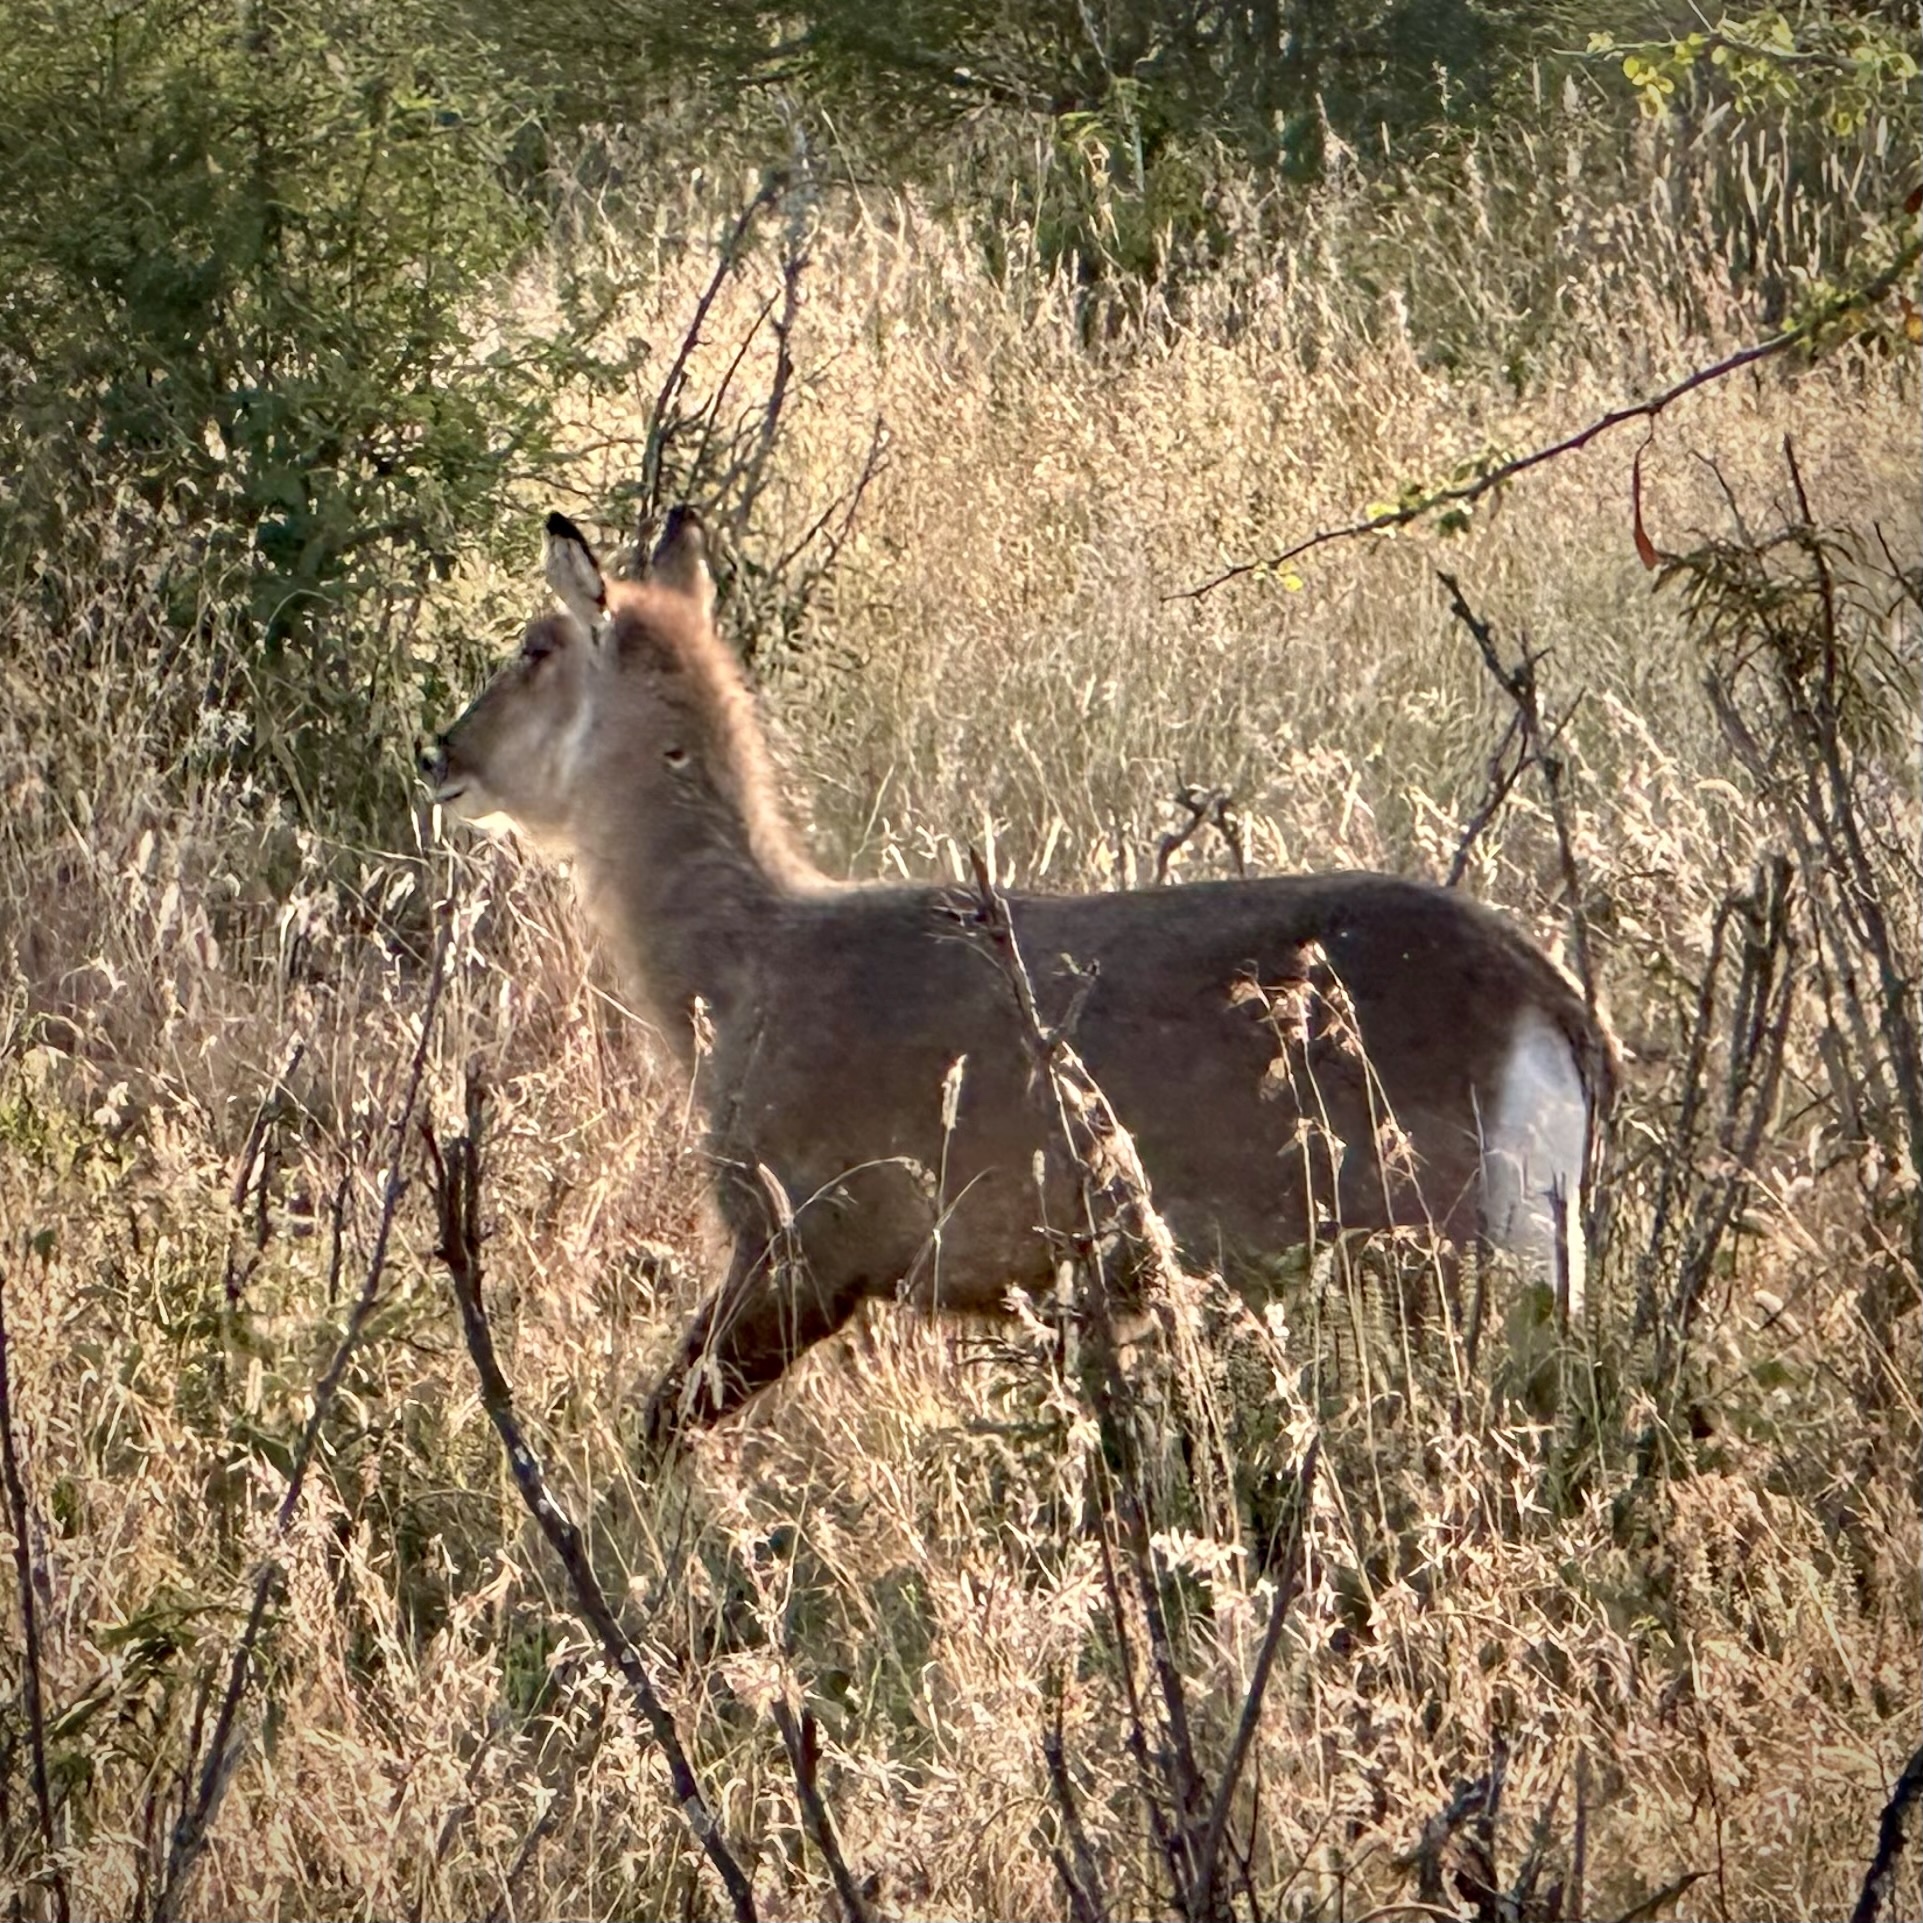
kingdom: Animalia
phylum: Chordata
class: Mammalia
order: Artiodactyla
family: Bovidae
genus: Kobus
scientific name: Kobus ellipsiprymnus
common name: Waterbuck
